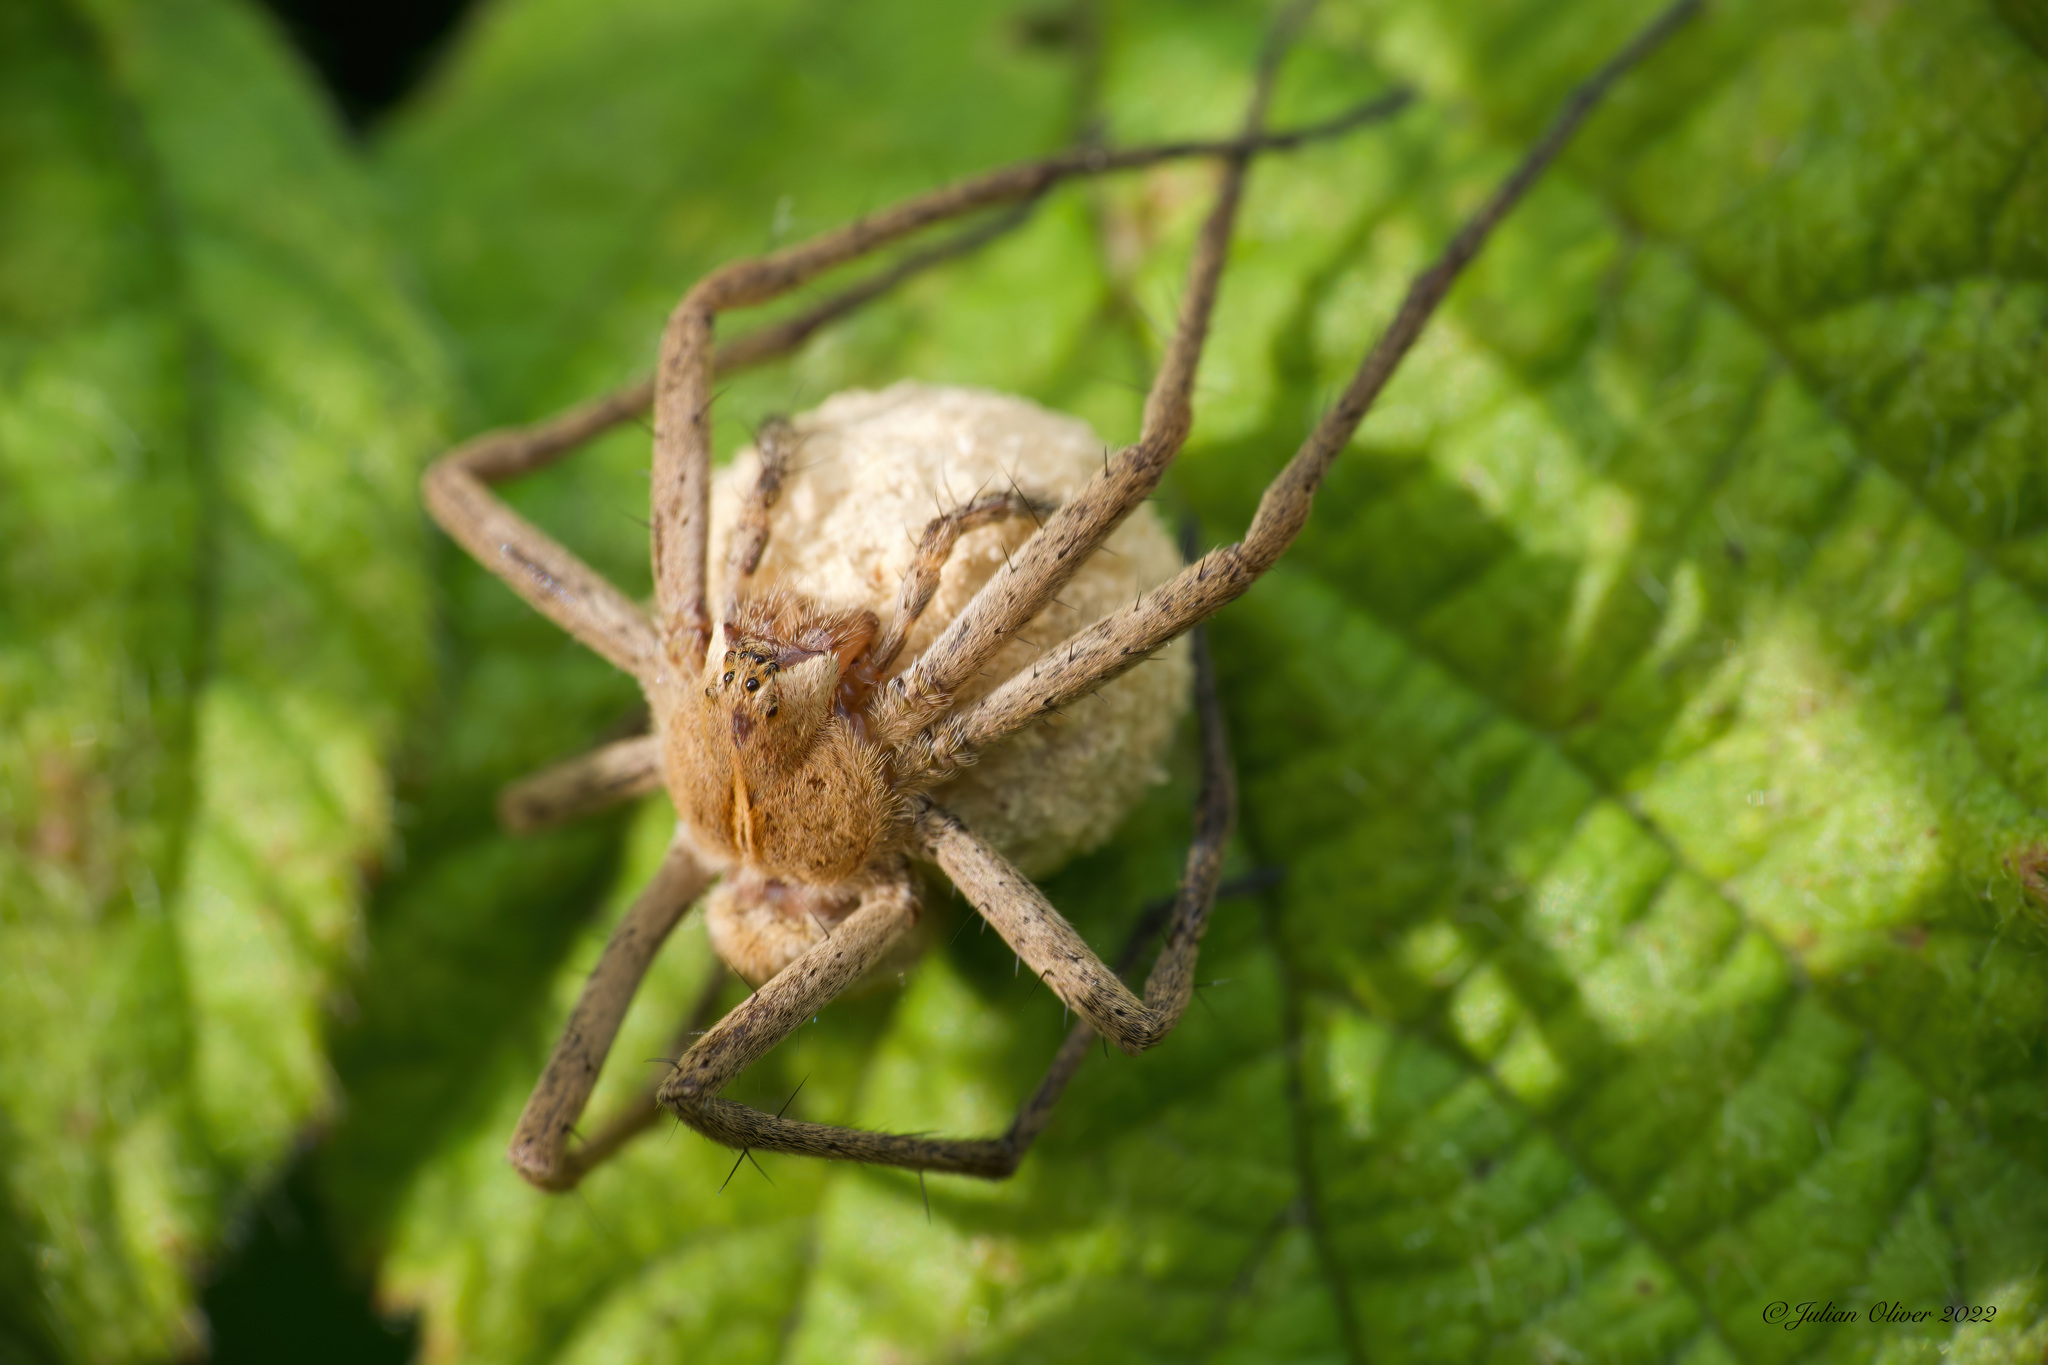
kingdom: Animalia
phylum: Arthropoda
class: Arachnida
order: Araneae
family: Pisauridae
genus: Pisaura
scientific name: Pisaura mirabilis
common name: Tent spider
